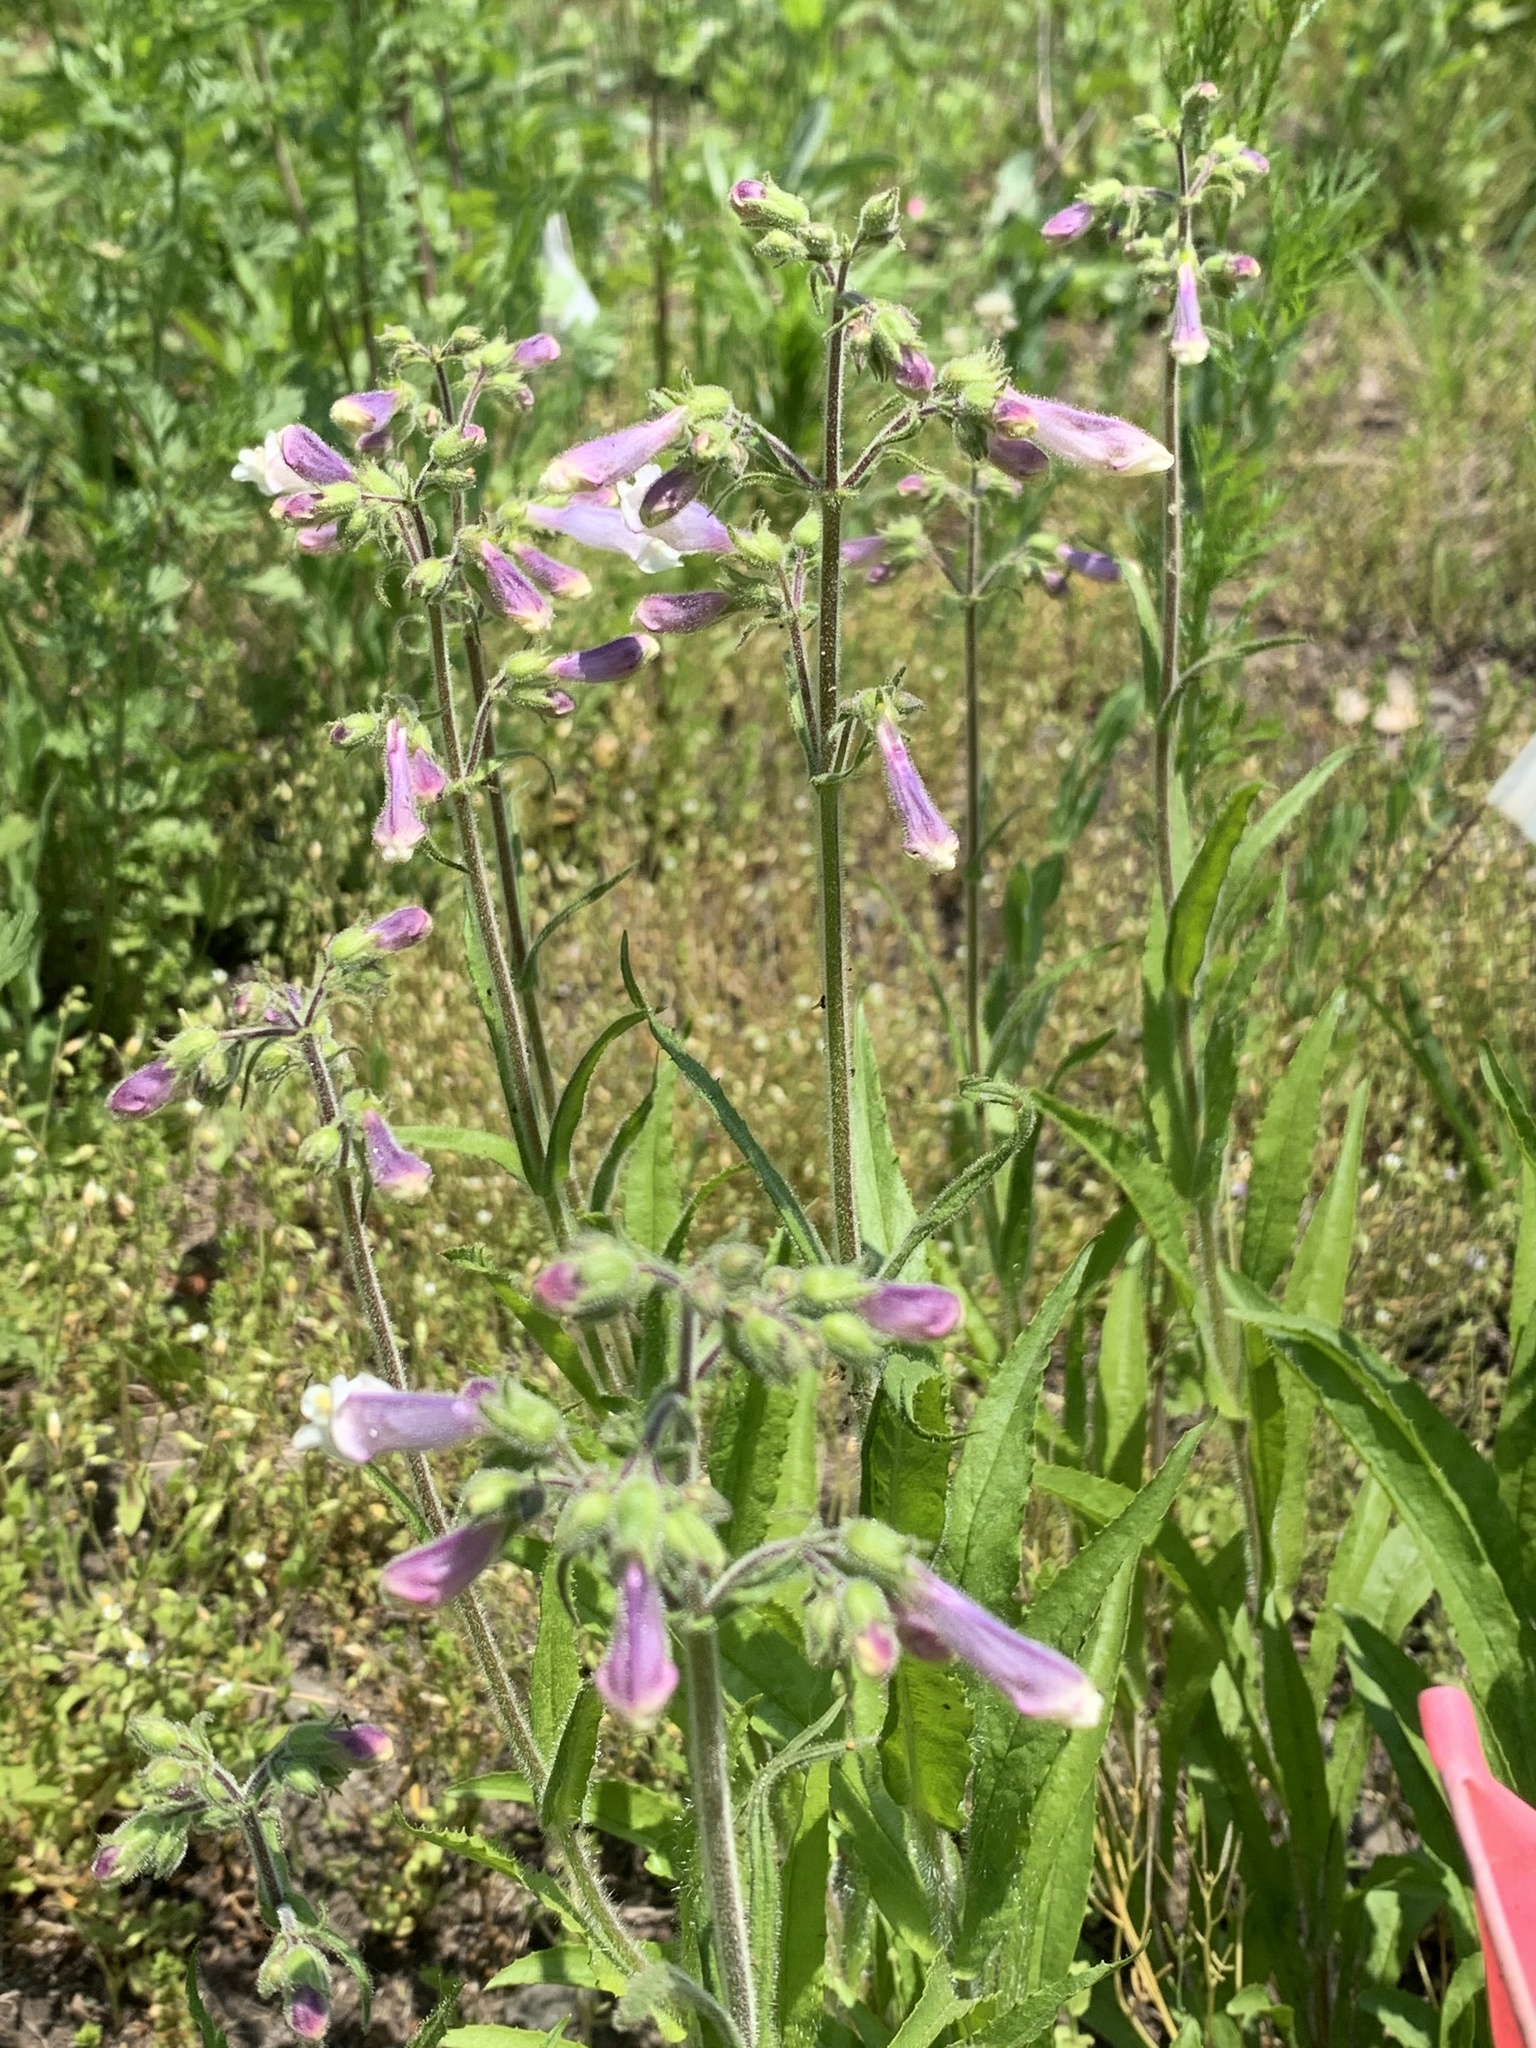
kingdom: Plantae
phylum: Tracheophyta
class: Magnoliopsida
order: Lamiales
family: Plantaginaceae
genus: Penstemon
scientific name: Penstemon hirsutus
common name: Hairy beardtongue
